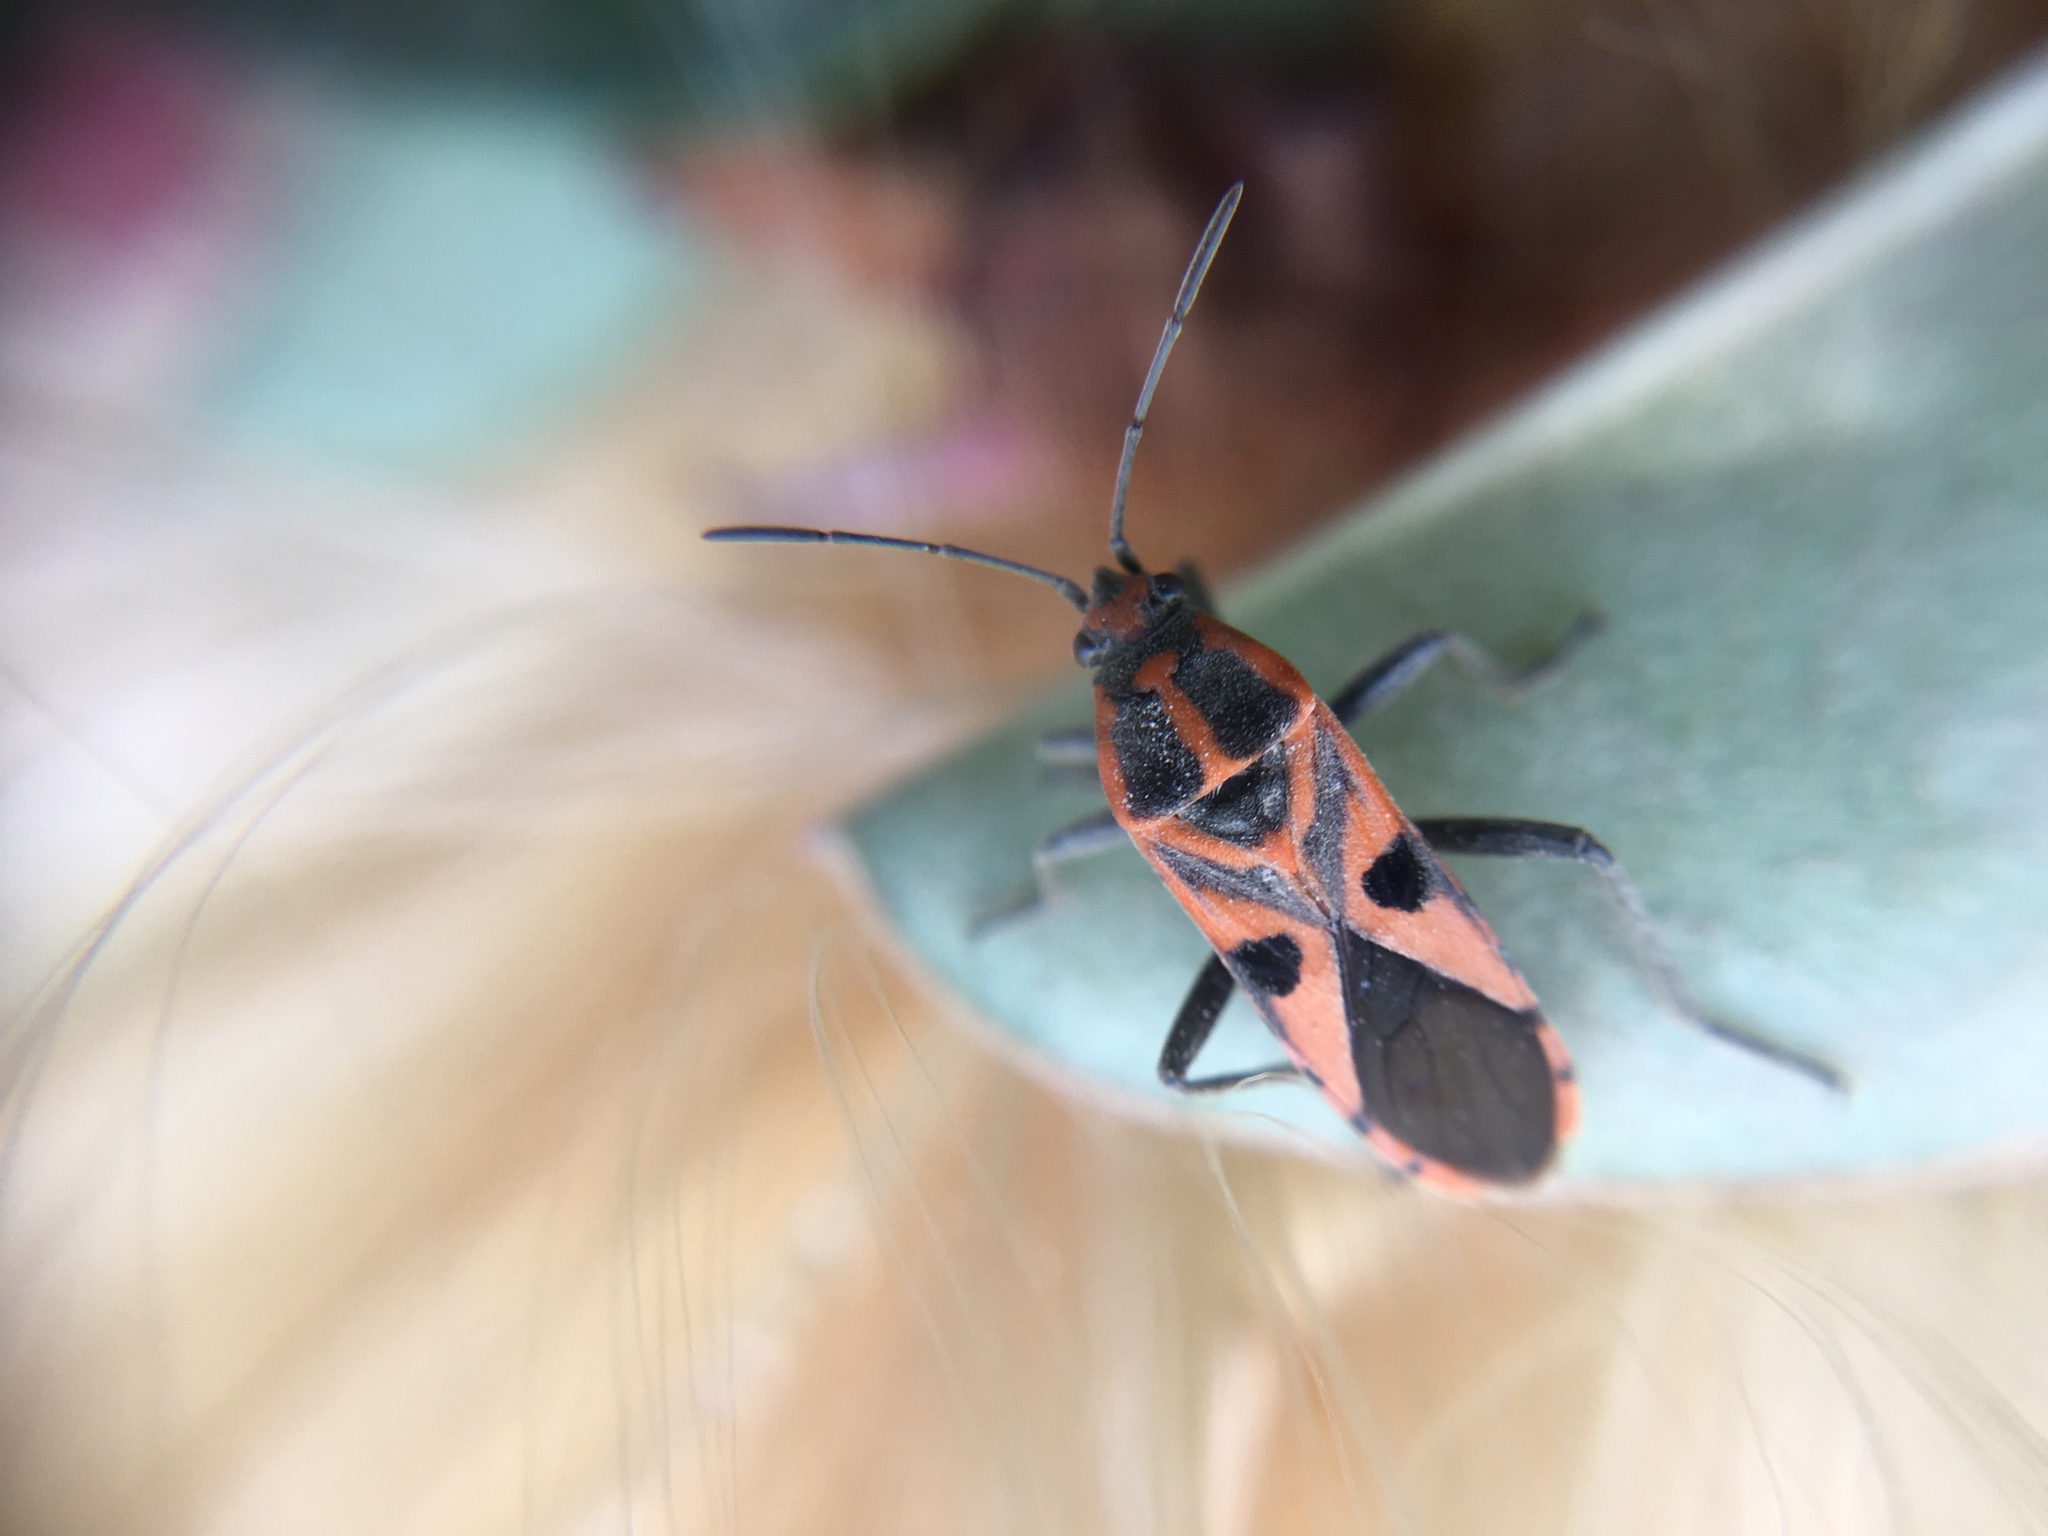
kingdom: Animalia
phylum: Arthropoda
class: Insecta
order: Hemiptera
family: Lygaeidae
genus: Spilostethus
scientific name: Spilostethus hospes
